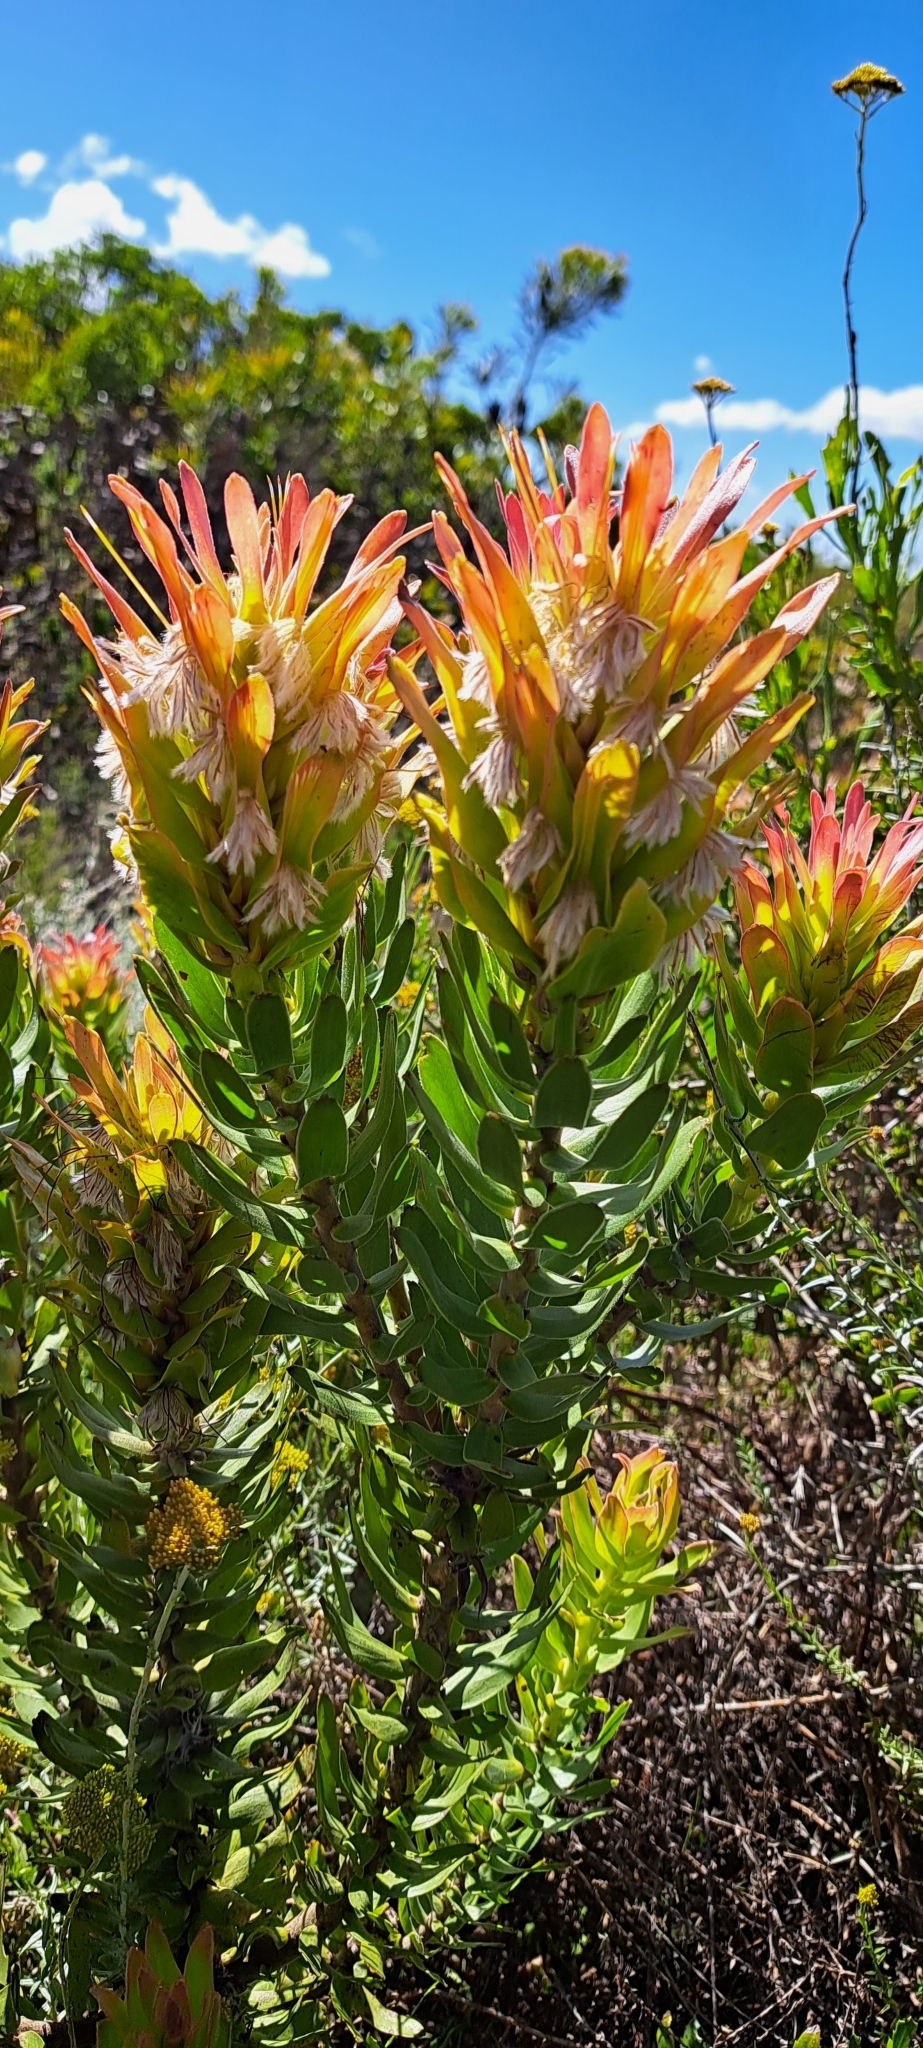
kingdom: Plantae
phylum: Tracheophyta
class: Magnoliopsida
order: Proteales
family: Proteaceae
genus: Mimetes
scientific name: Mimetes cucullatus
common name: Common pagoda
